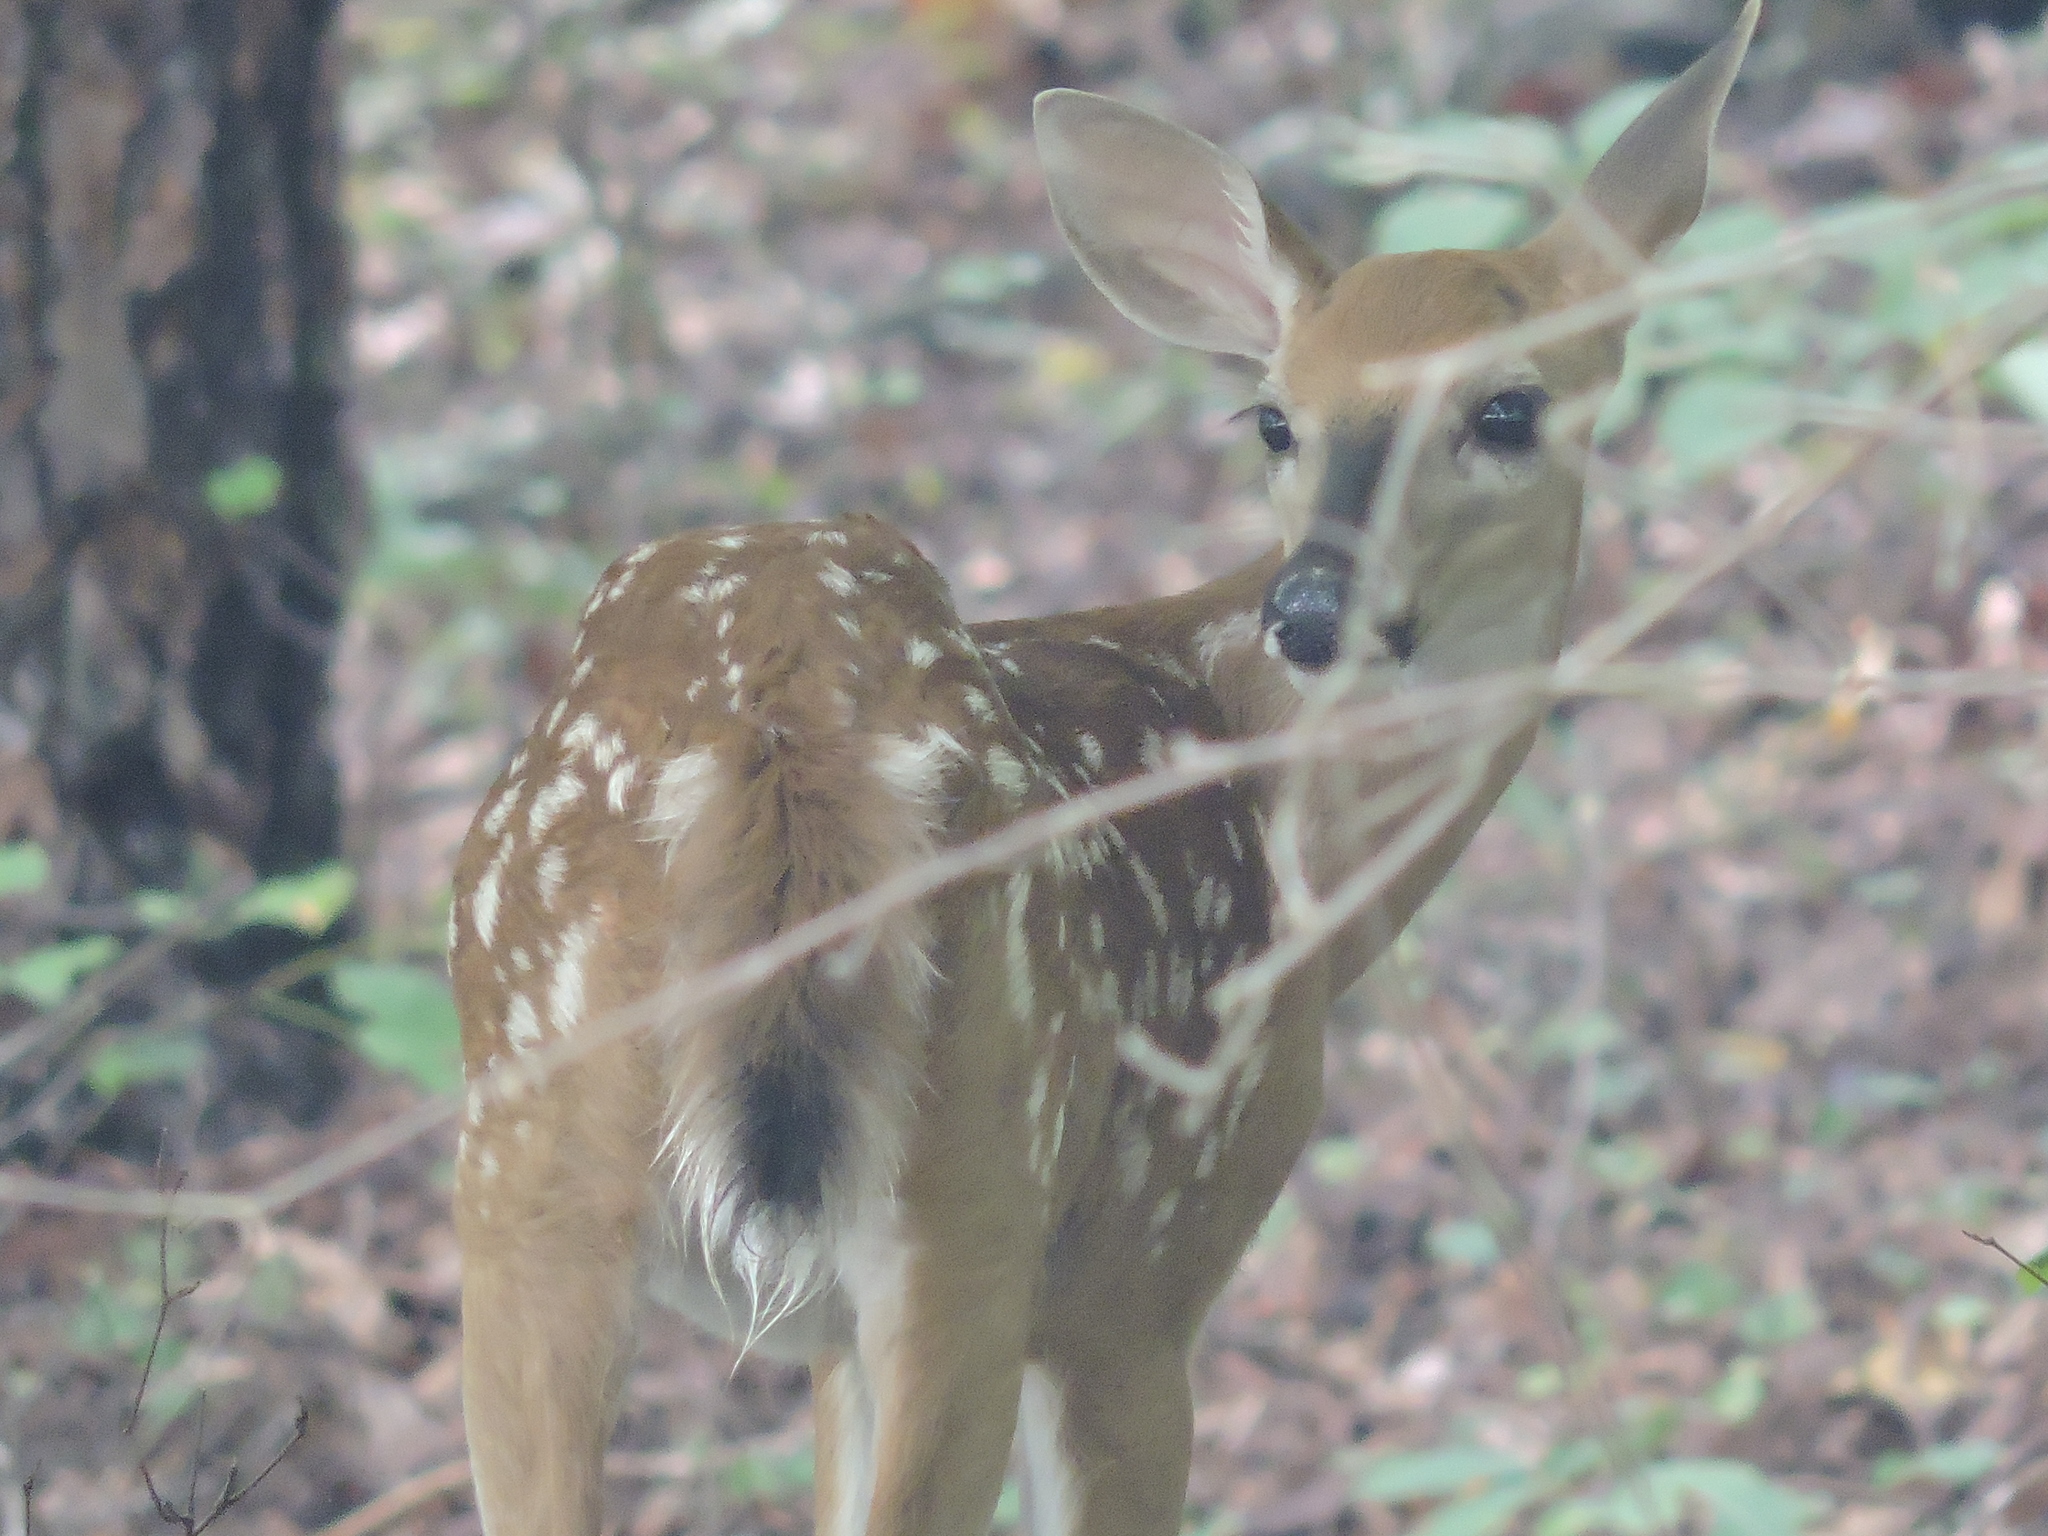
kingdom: Animalia
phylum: Chordata
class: Mammalia
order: Artiodactyla
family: Cervidae
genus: Odocoileus
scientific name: Odocoileus virginianus
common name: White-tailed deer
